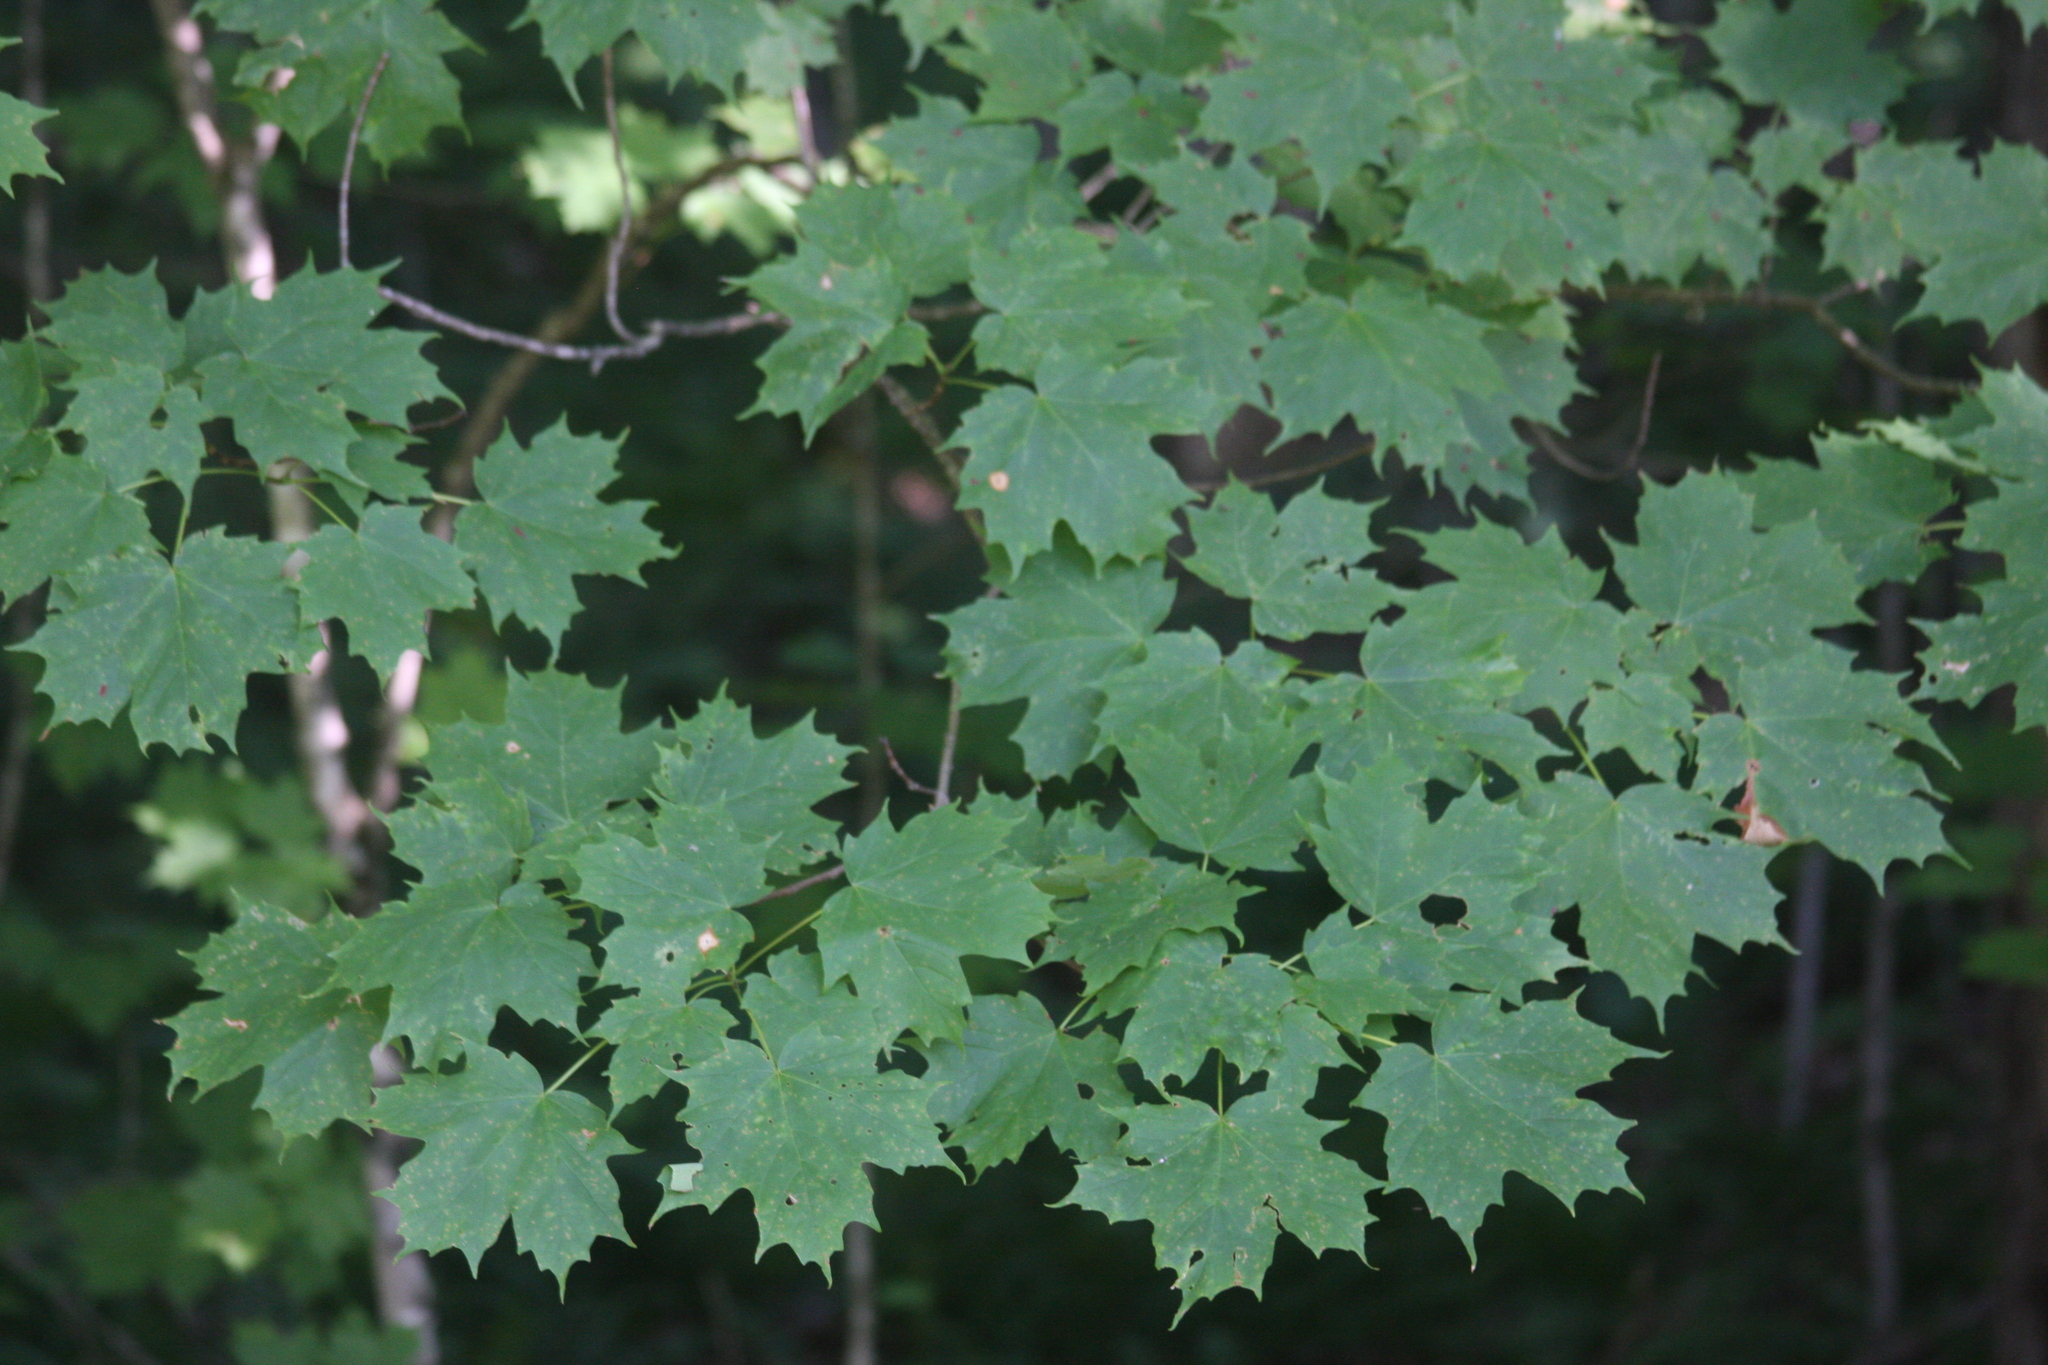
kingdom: Plantae
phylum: Tracheophyta
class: Magnoliopsida
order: Sapindales
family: Sapindaceae
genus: Acer
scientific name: Acer saccharum
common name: Sugar maple
